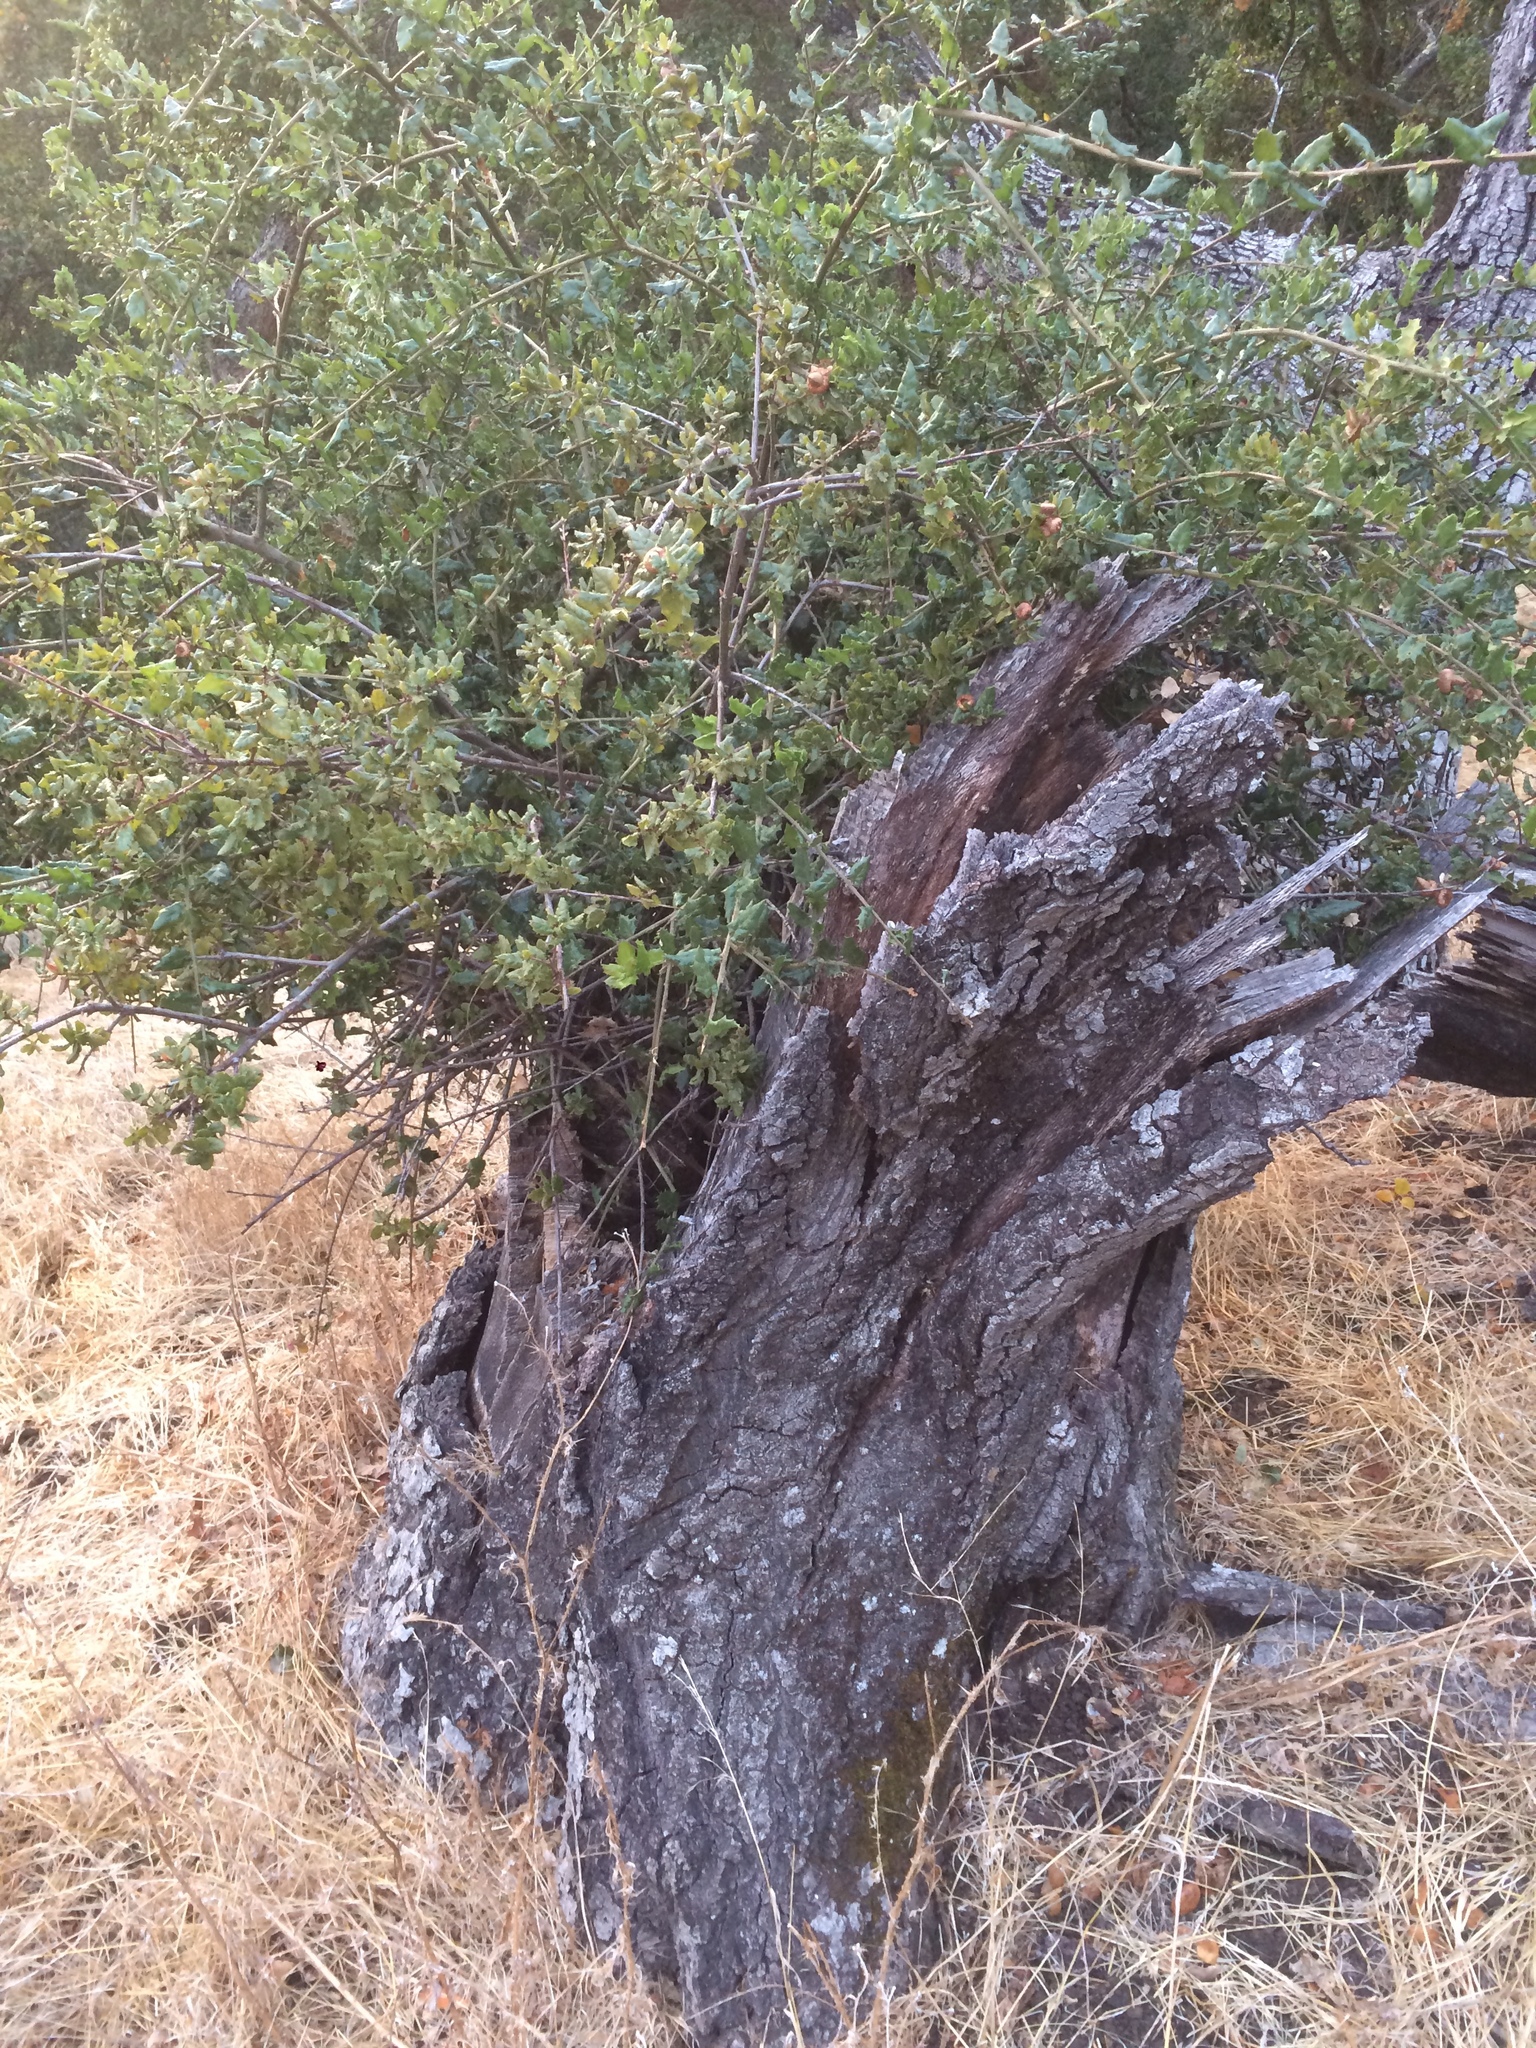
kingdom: Plantae
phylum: Tracheophyta
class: Magnoliopsida
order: Fagales
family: Fagaceae
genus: Quercus
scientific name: Quercus agrifolia
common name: California live oak
